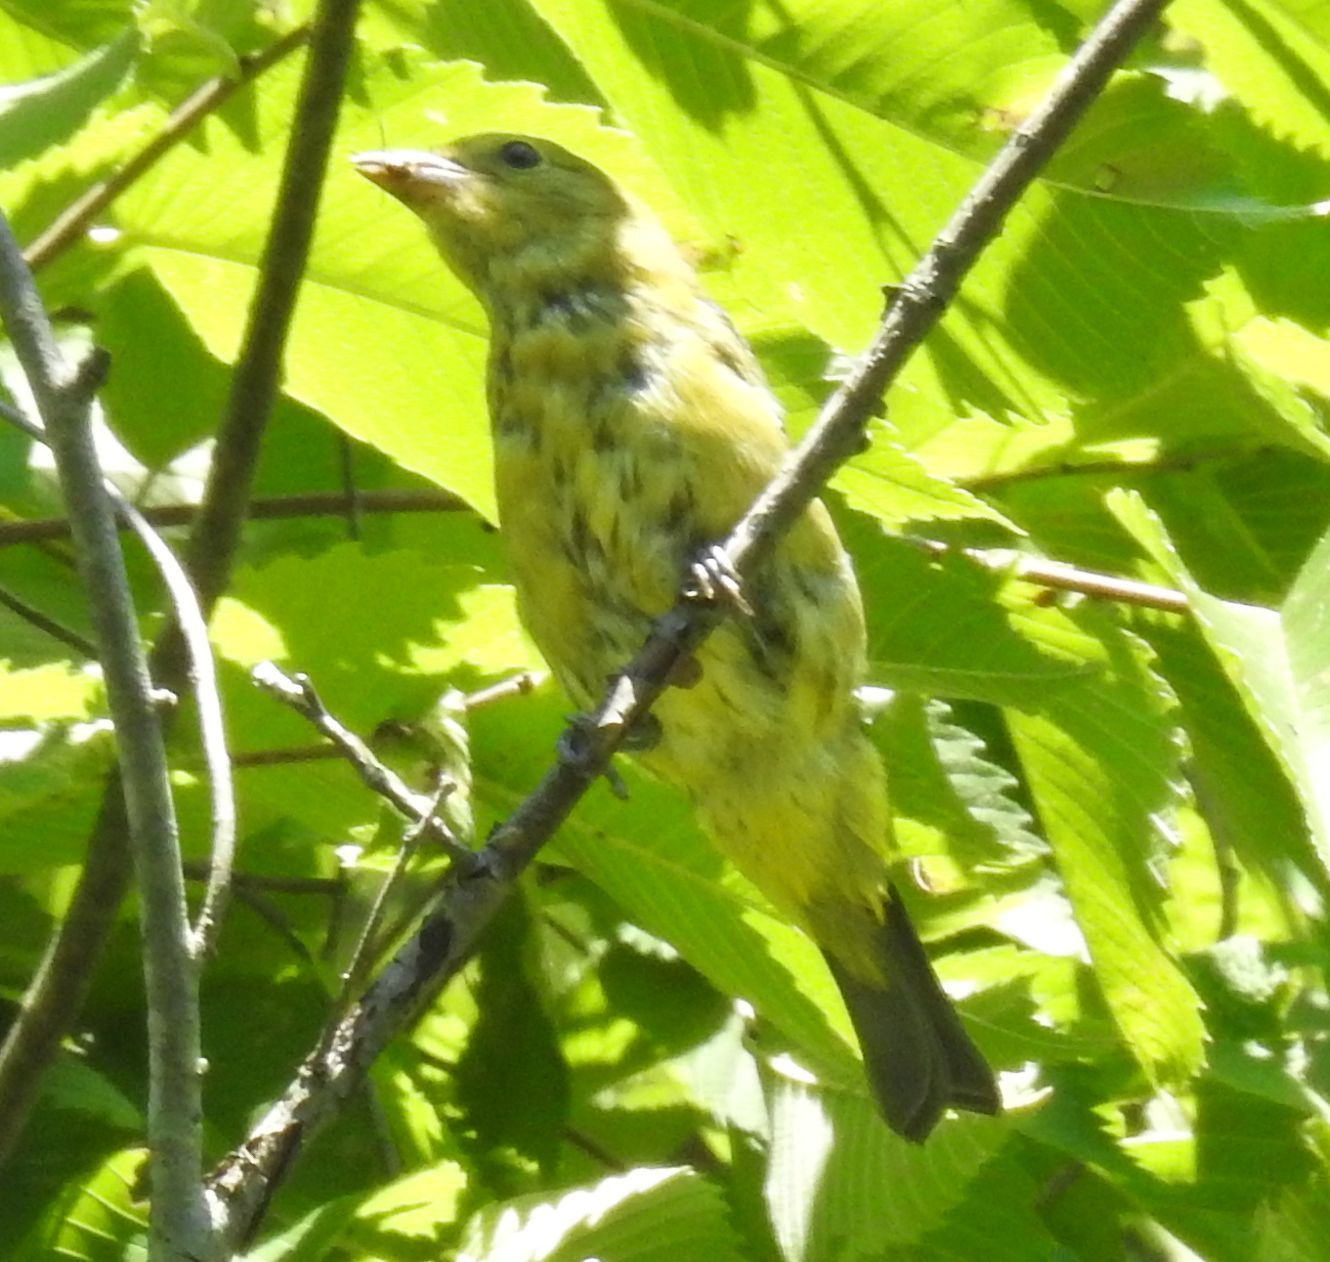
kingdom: Animalia
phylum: Chordata
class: Aves
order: Passeriformes
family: Cardinalidae
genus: Piranga
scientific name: Piranga olivacea
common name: Scarlet tanager
